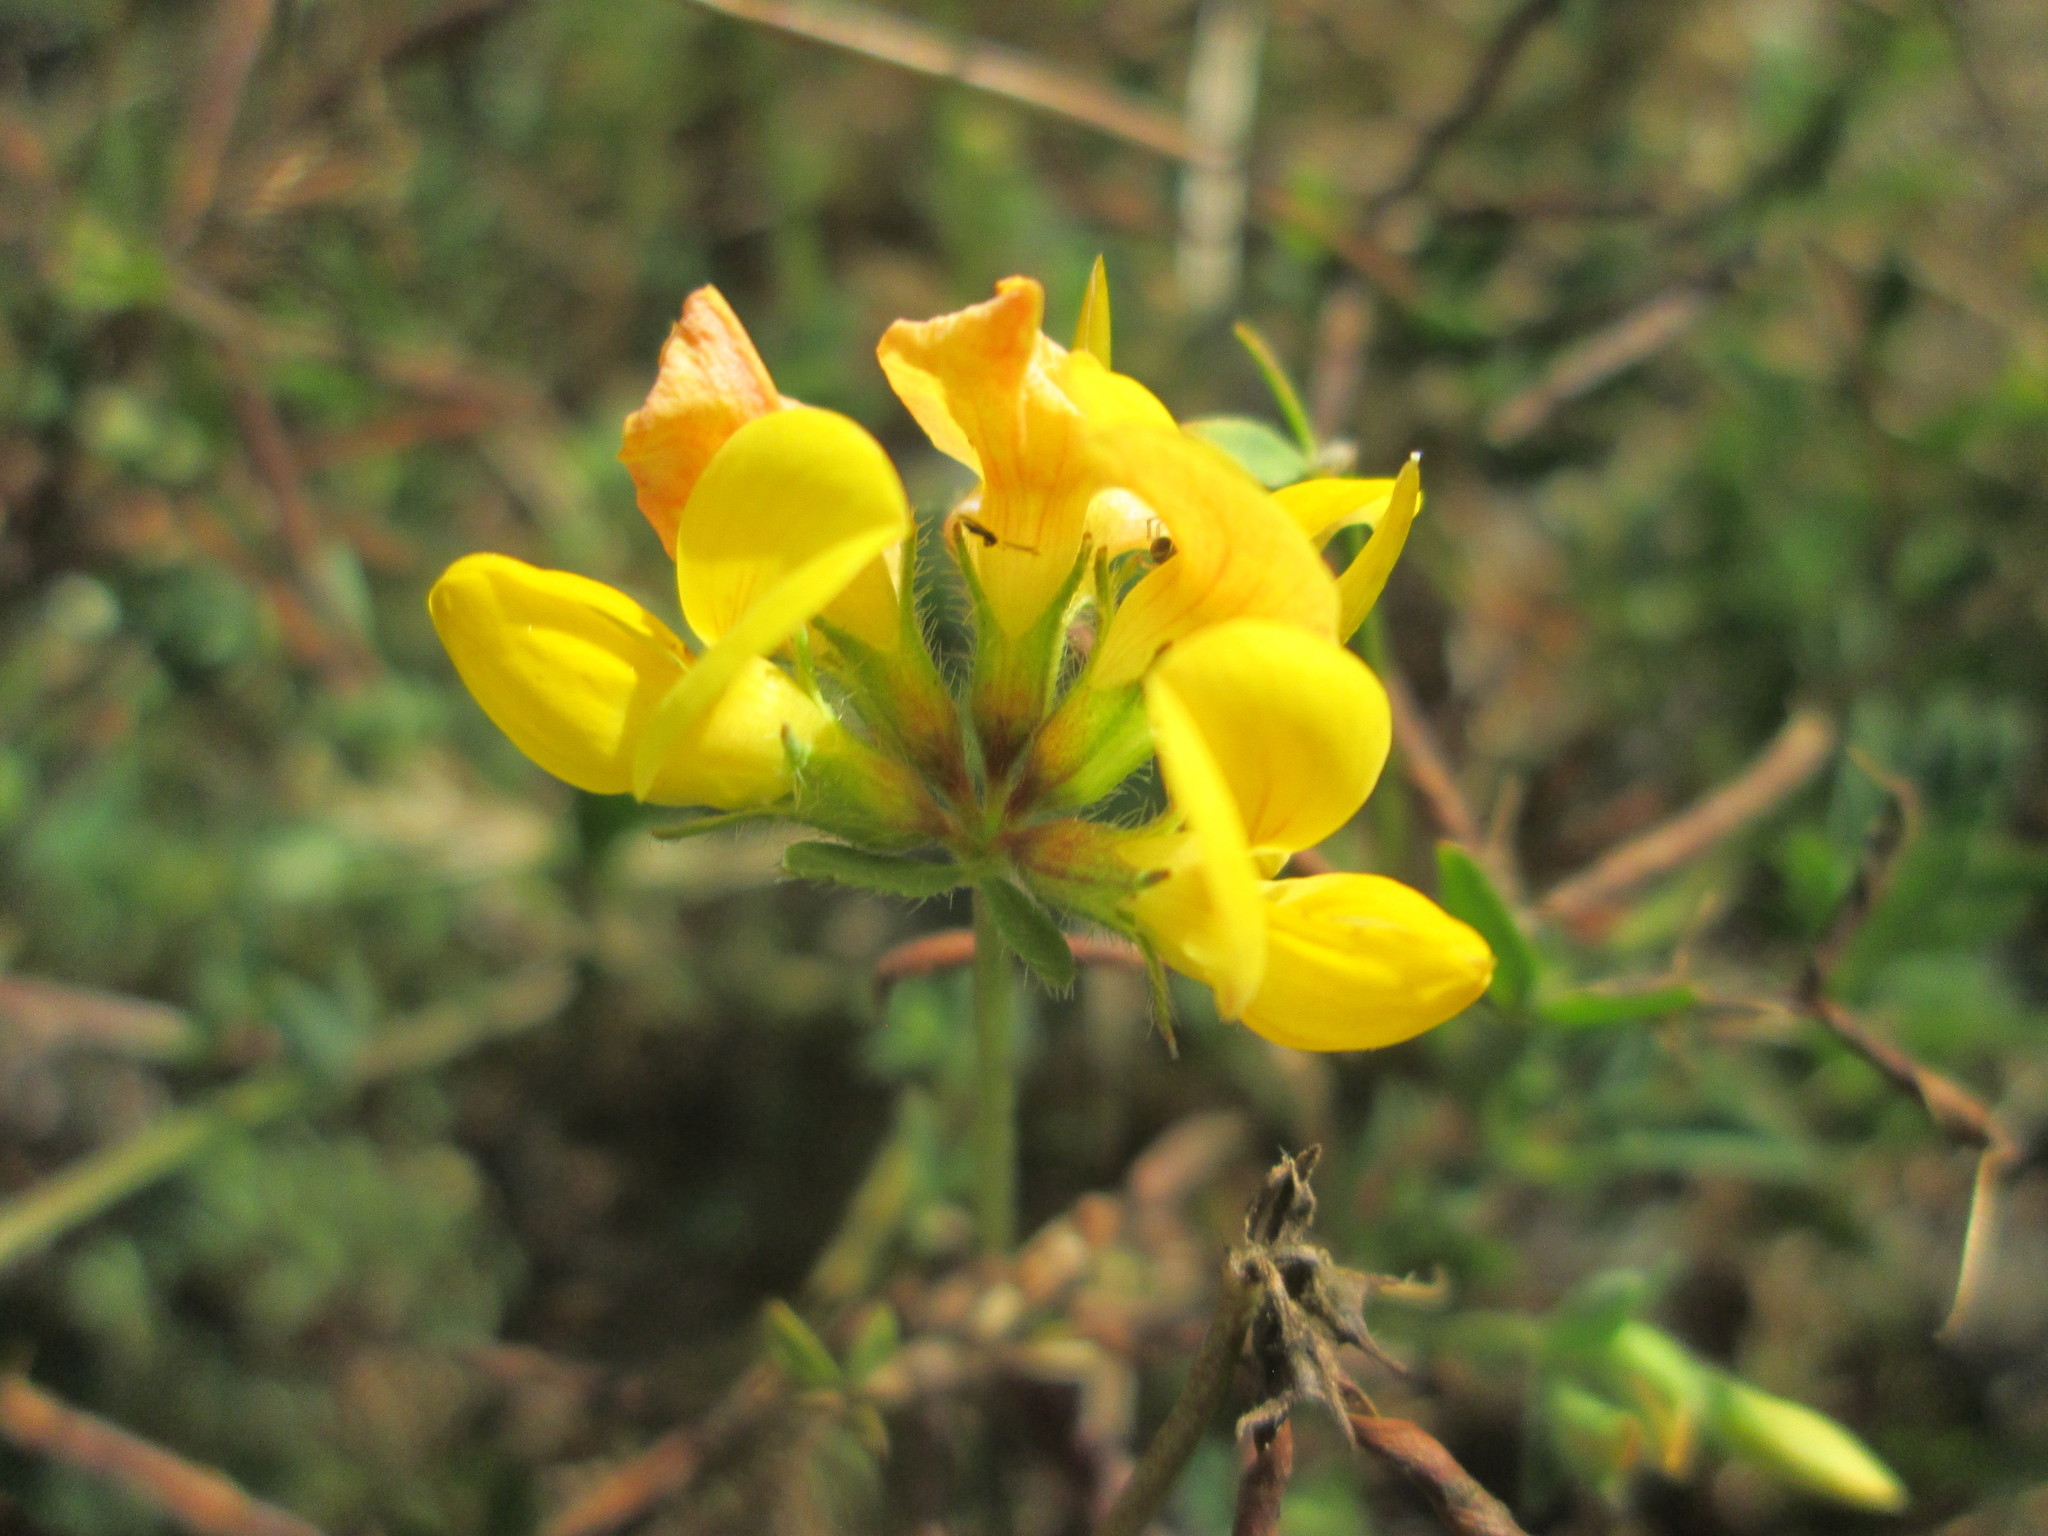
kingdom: Plantae
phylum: Tracheophyta
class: Magnoliopsida
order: Fabales
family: Fabaceae
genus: Lotus
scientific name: Lotus corniculatus
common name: Common bird's-foot-trefoil
